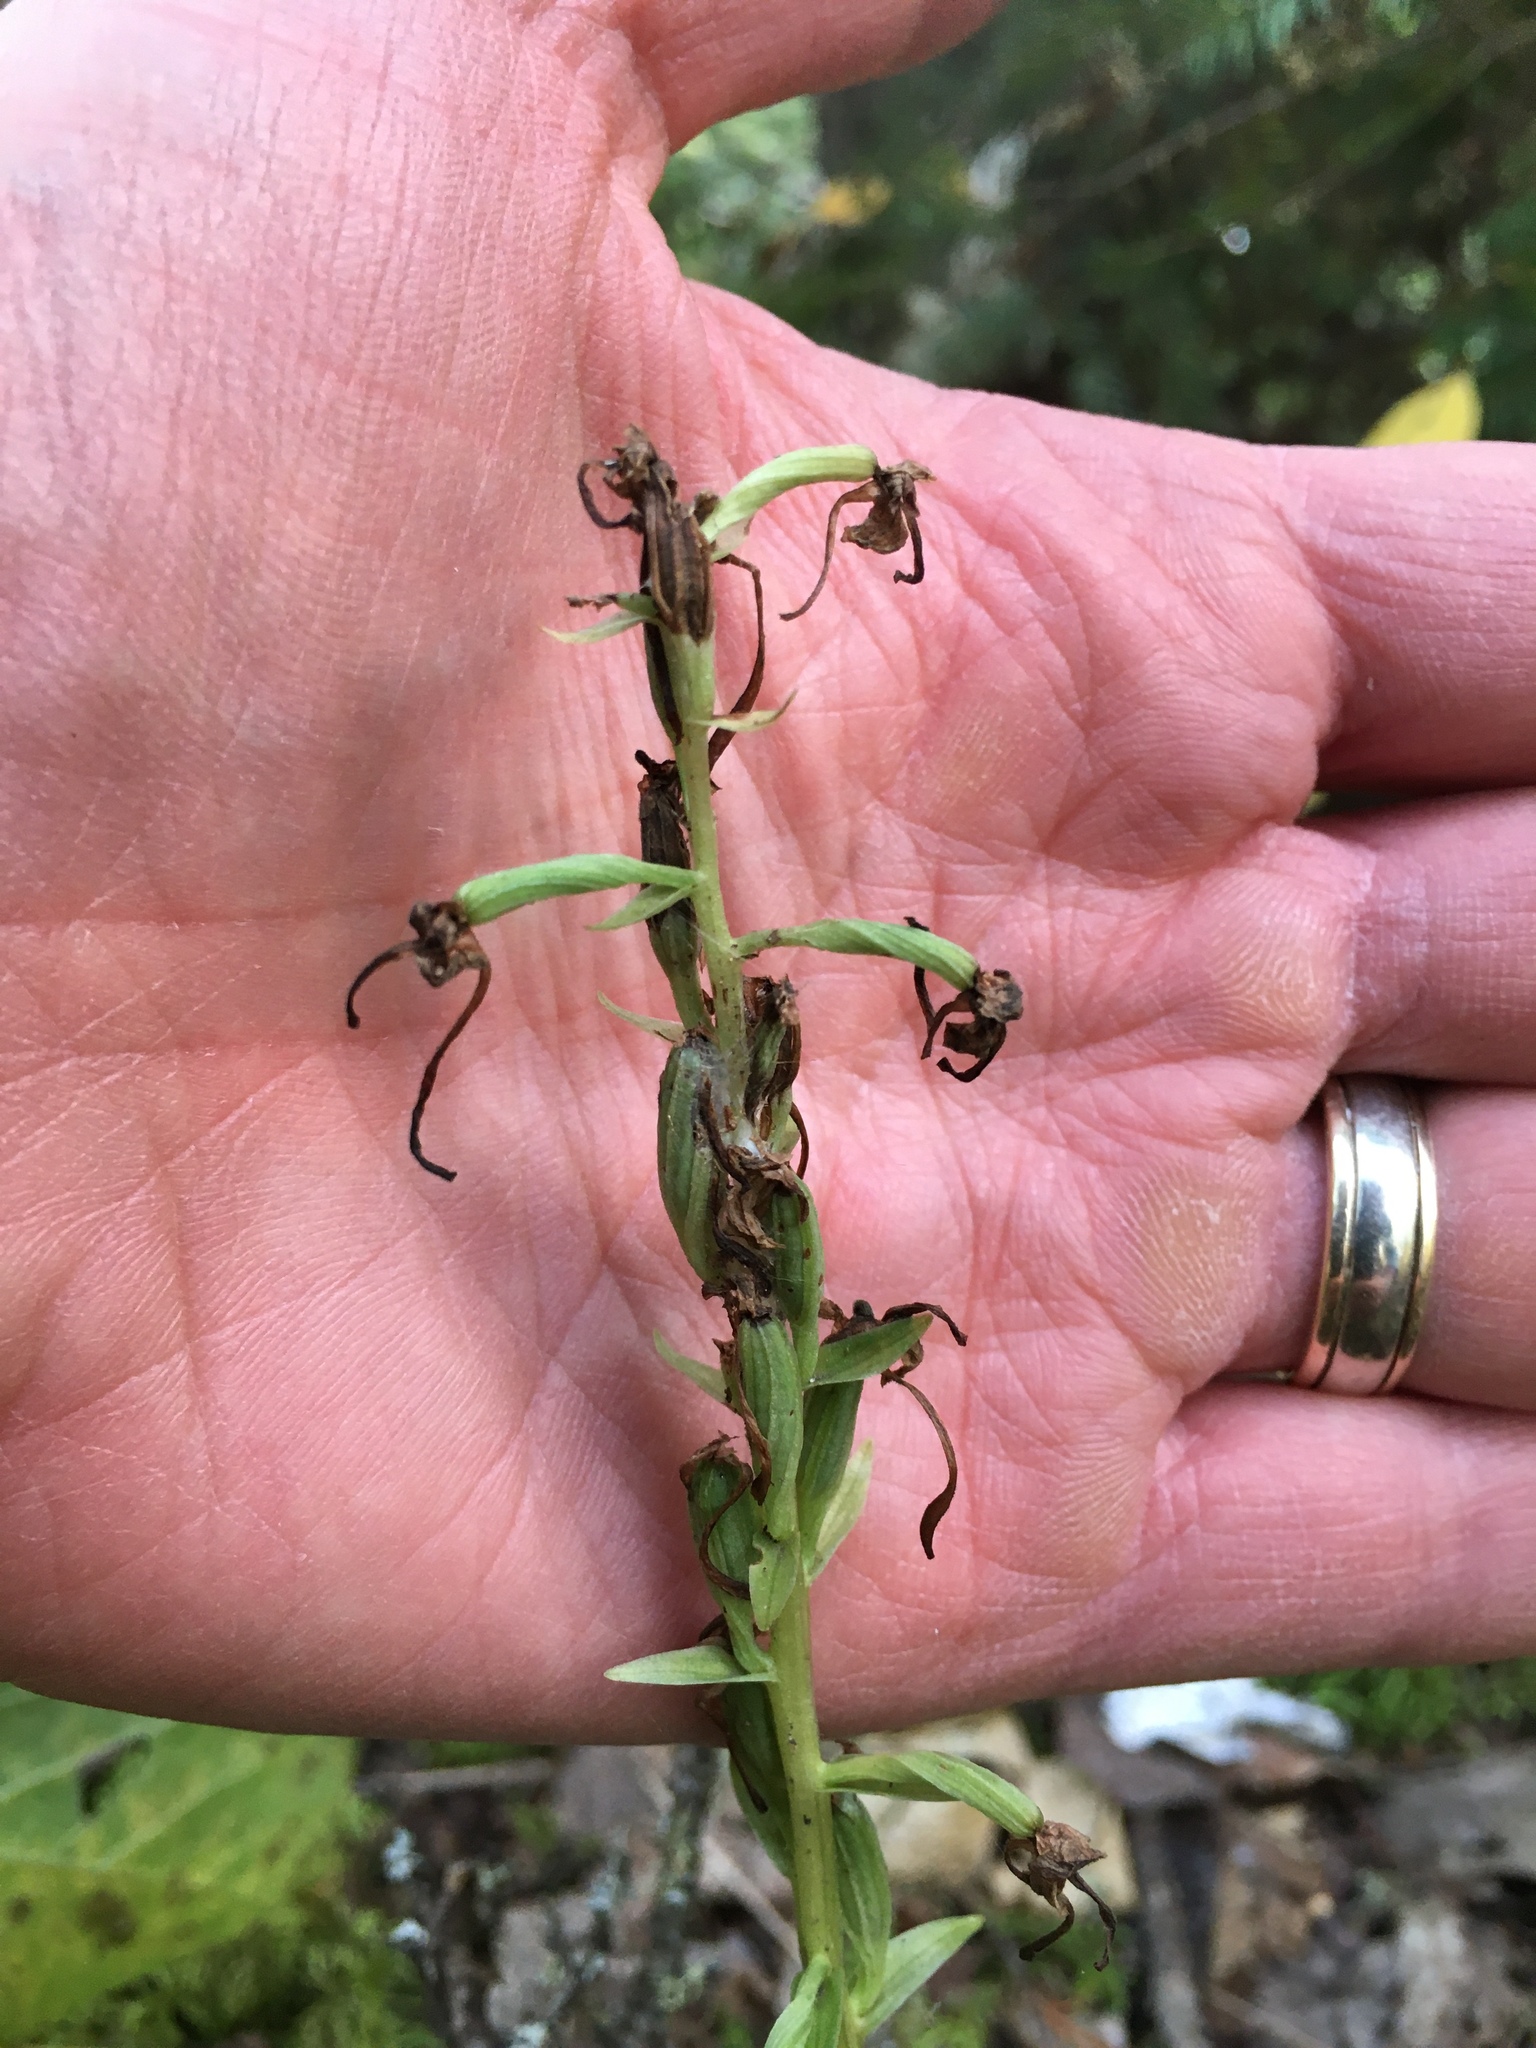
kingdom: Plantae
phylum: Tracheophyta
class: Liliopsida
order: Asparagales
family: Orchidaceae
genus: Platanthera
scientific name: Platanthera orbiculata
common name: Large round-leaved orchid
